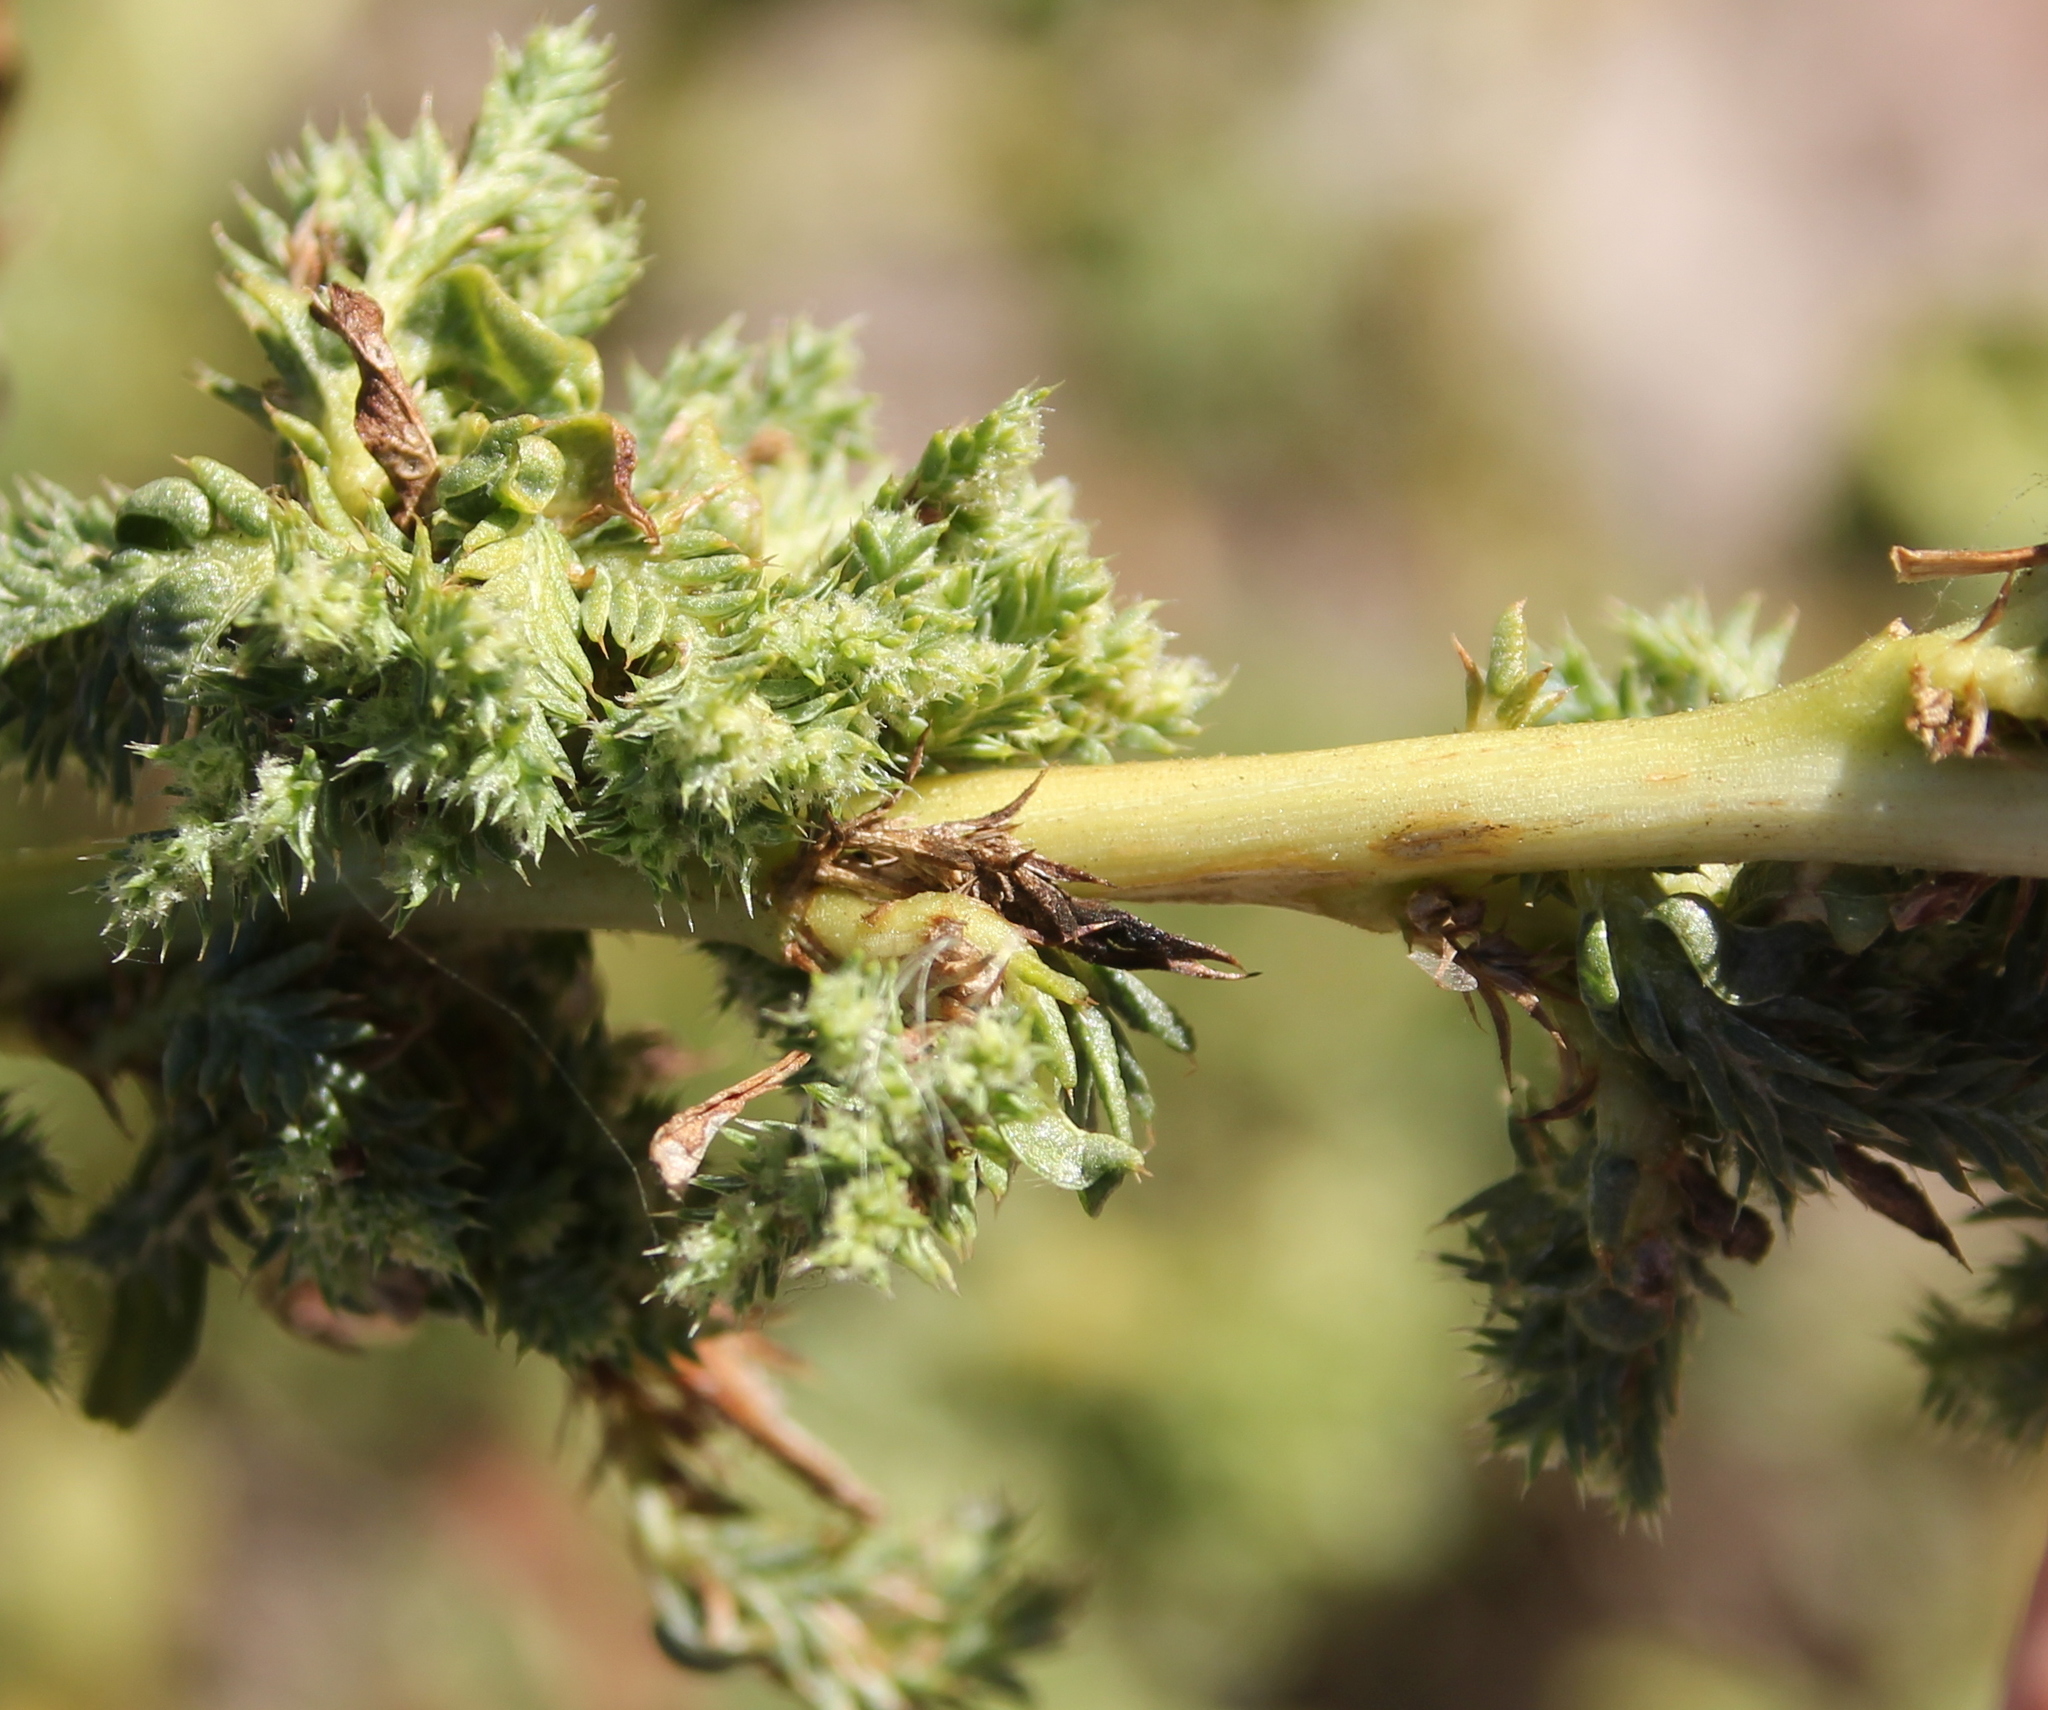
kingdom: Plantae
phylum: Tracheophyta
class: Magnoliopsida
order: Caryophyllales
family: Amaranthaceae
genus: Amaranthus
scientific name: Amaranthus albus
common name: White pigweed
